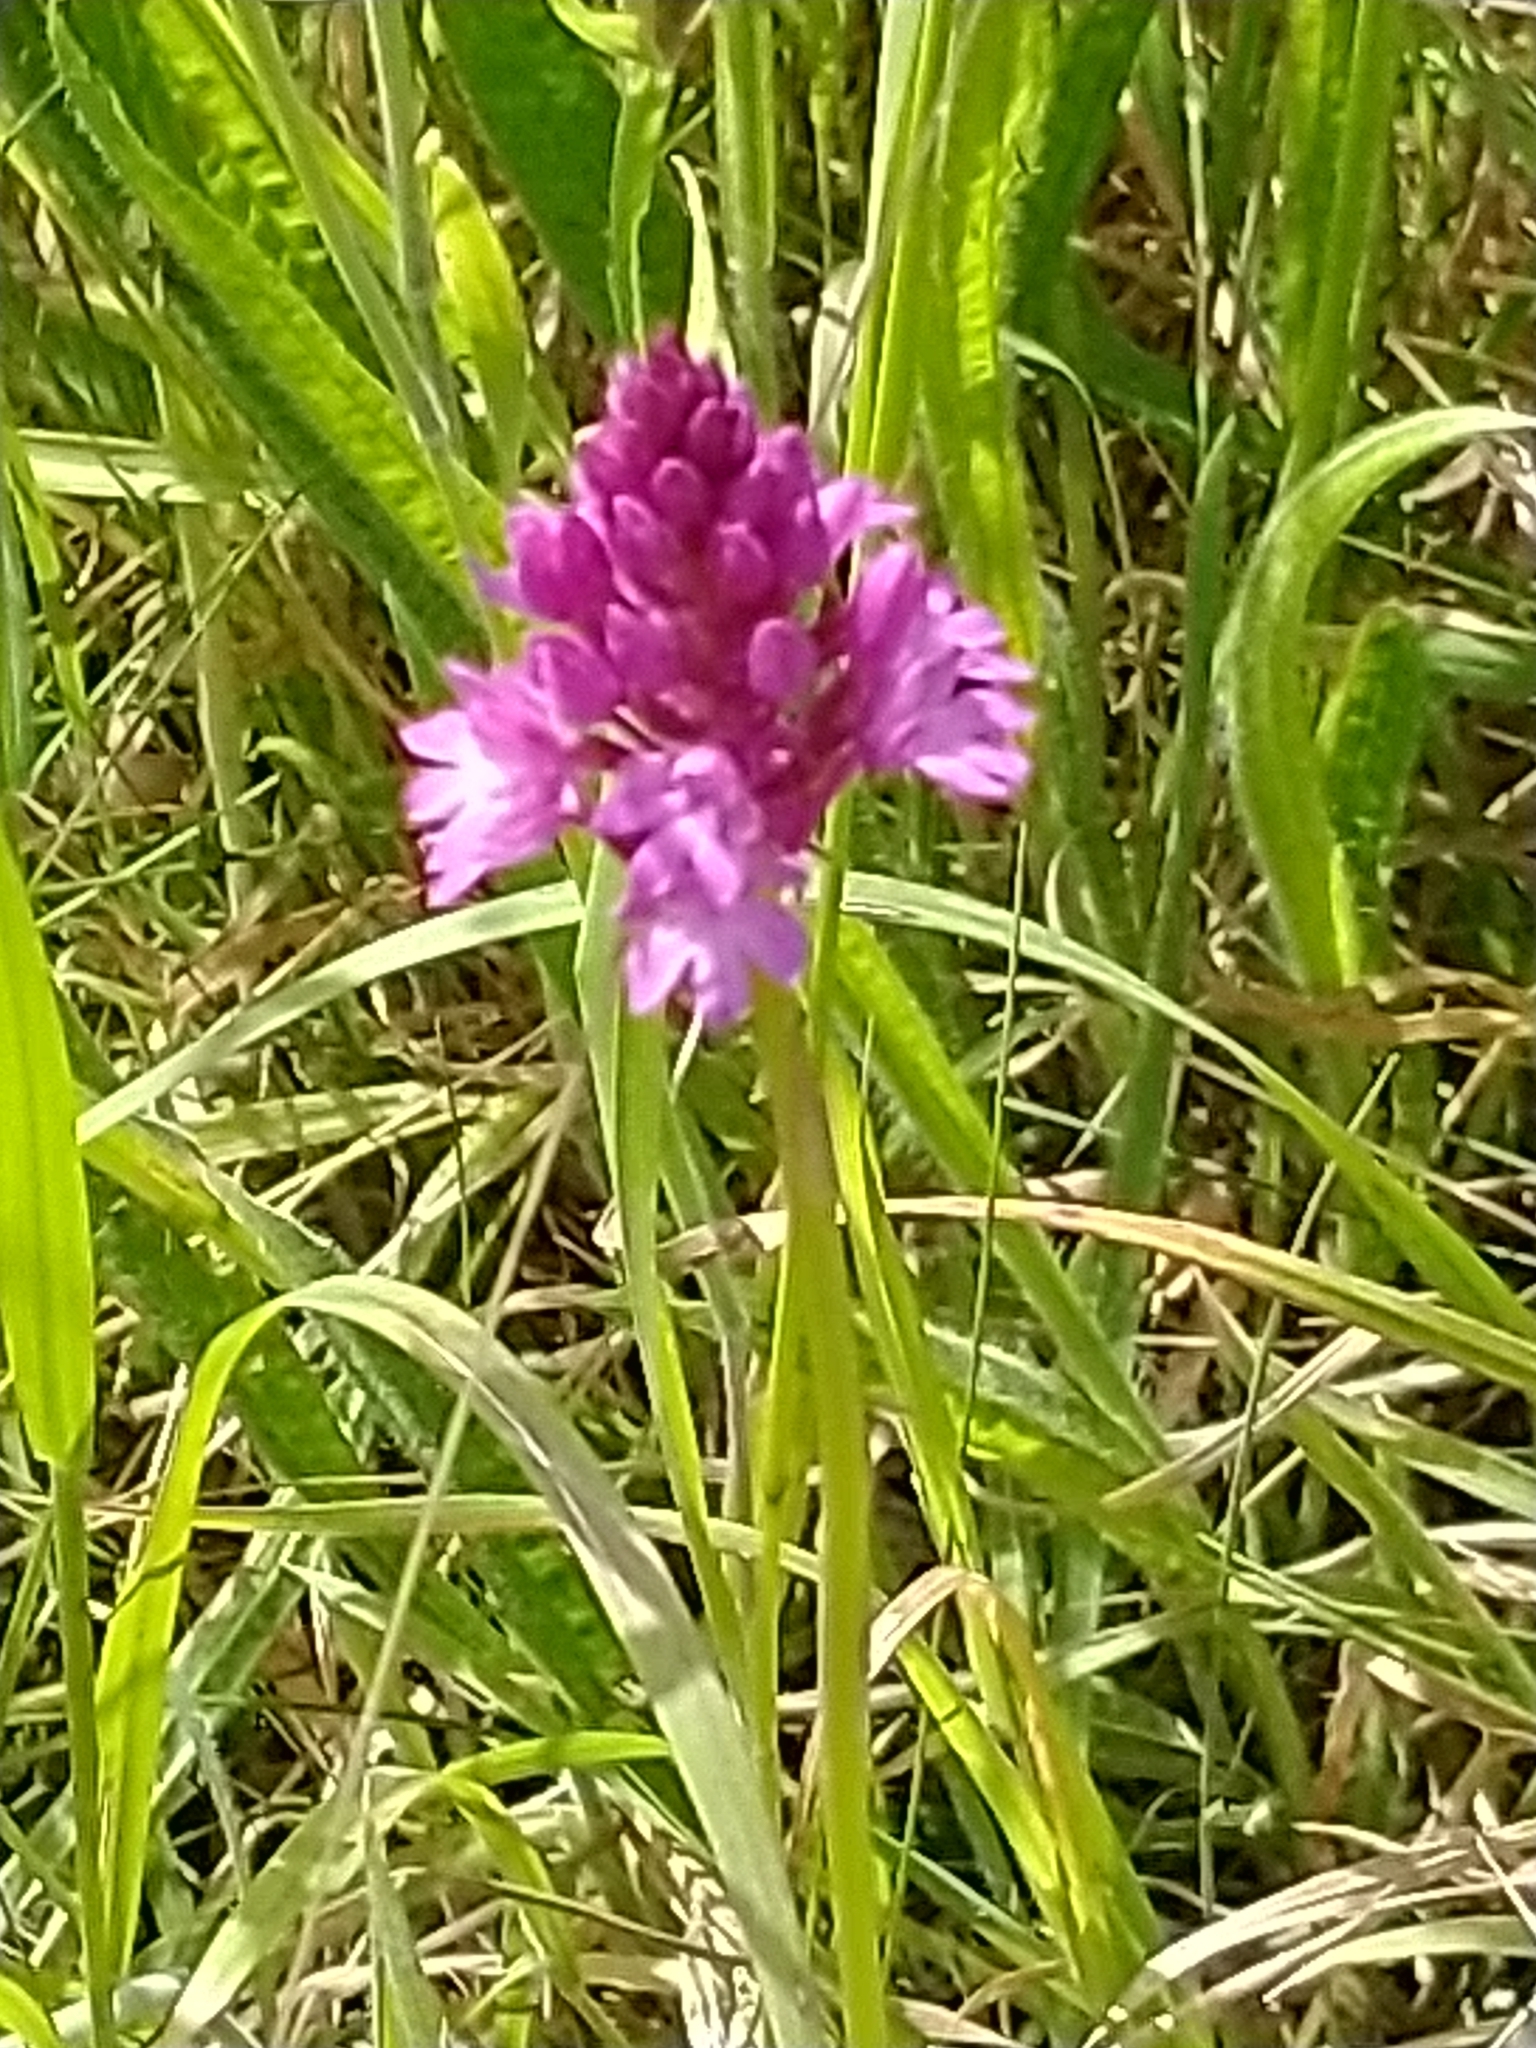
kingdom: Plantae
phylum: Tracheophyta
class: Liliopsida
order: Asparagales
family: Orchidaceae
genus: Anacamptis
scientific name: Anacamptis pyramidalis
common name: Pyramidal orchid
